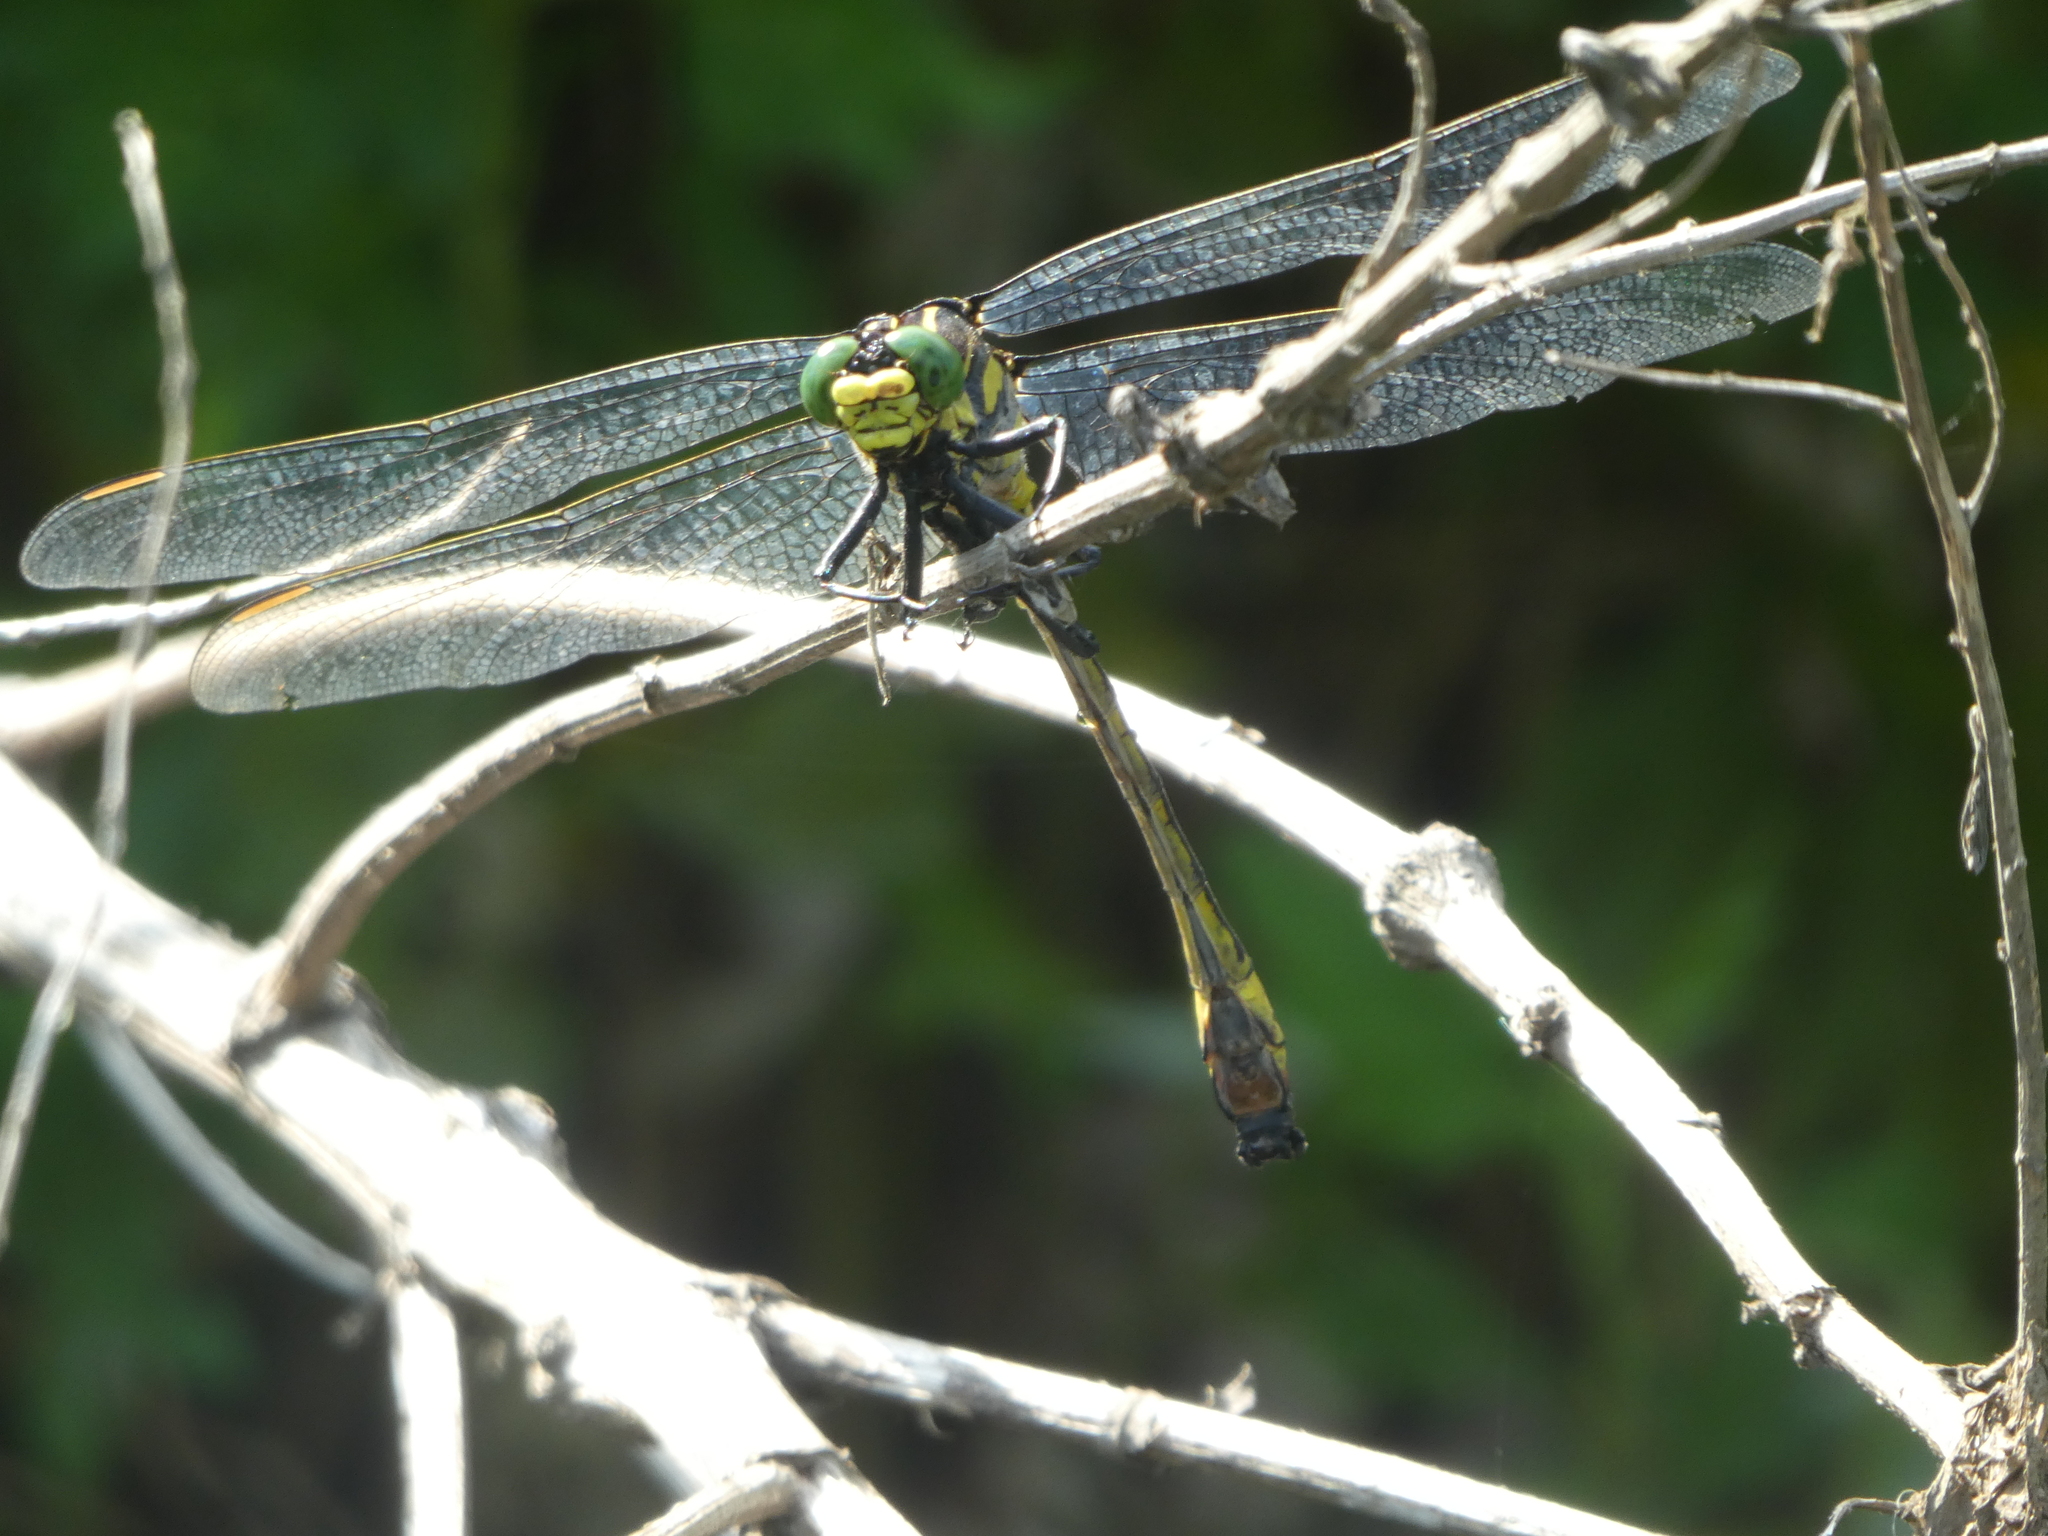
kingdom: Animalia
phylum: Arthropoda
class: Insecta
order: Odonata
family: Gomphidae
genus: Hagenius
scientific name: Hagenius brevistylus
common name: Dragonhunter
